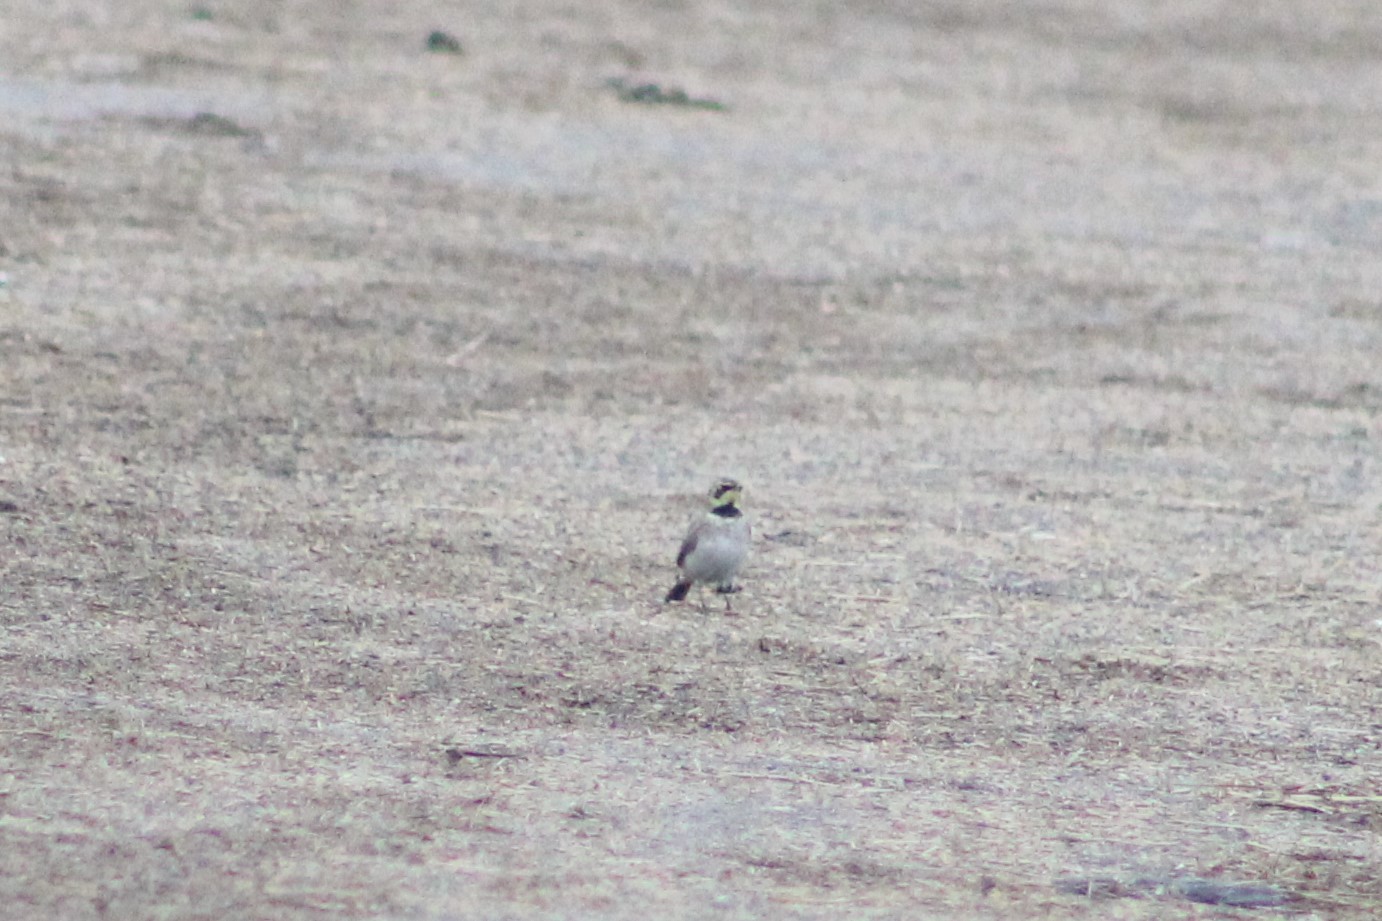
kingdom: Animalia
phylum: Chordata
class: Aves
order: Passeriformes
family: Alaudidae
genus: Eremophila
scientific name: Eremophila alpestris
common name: Horned lark
